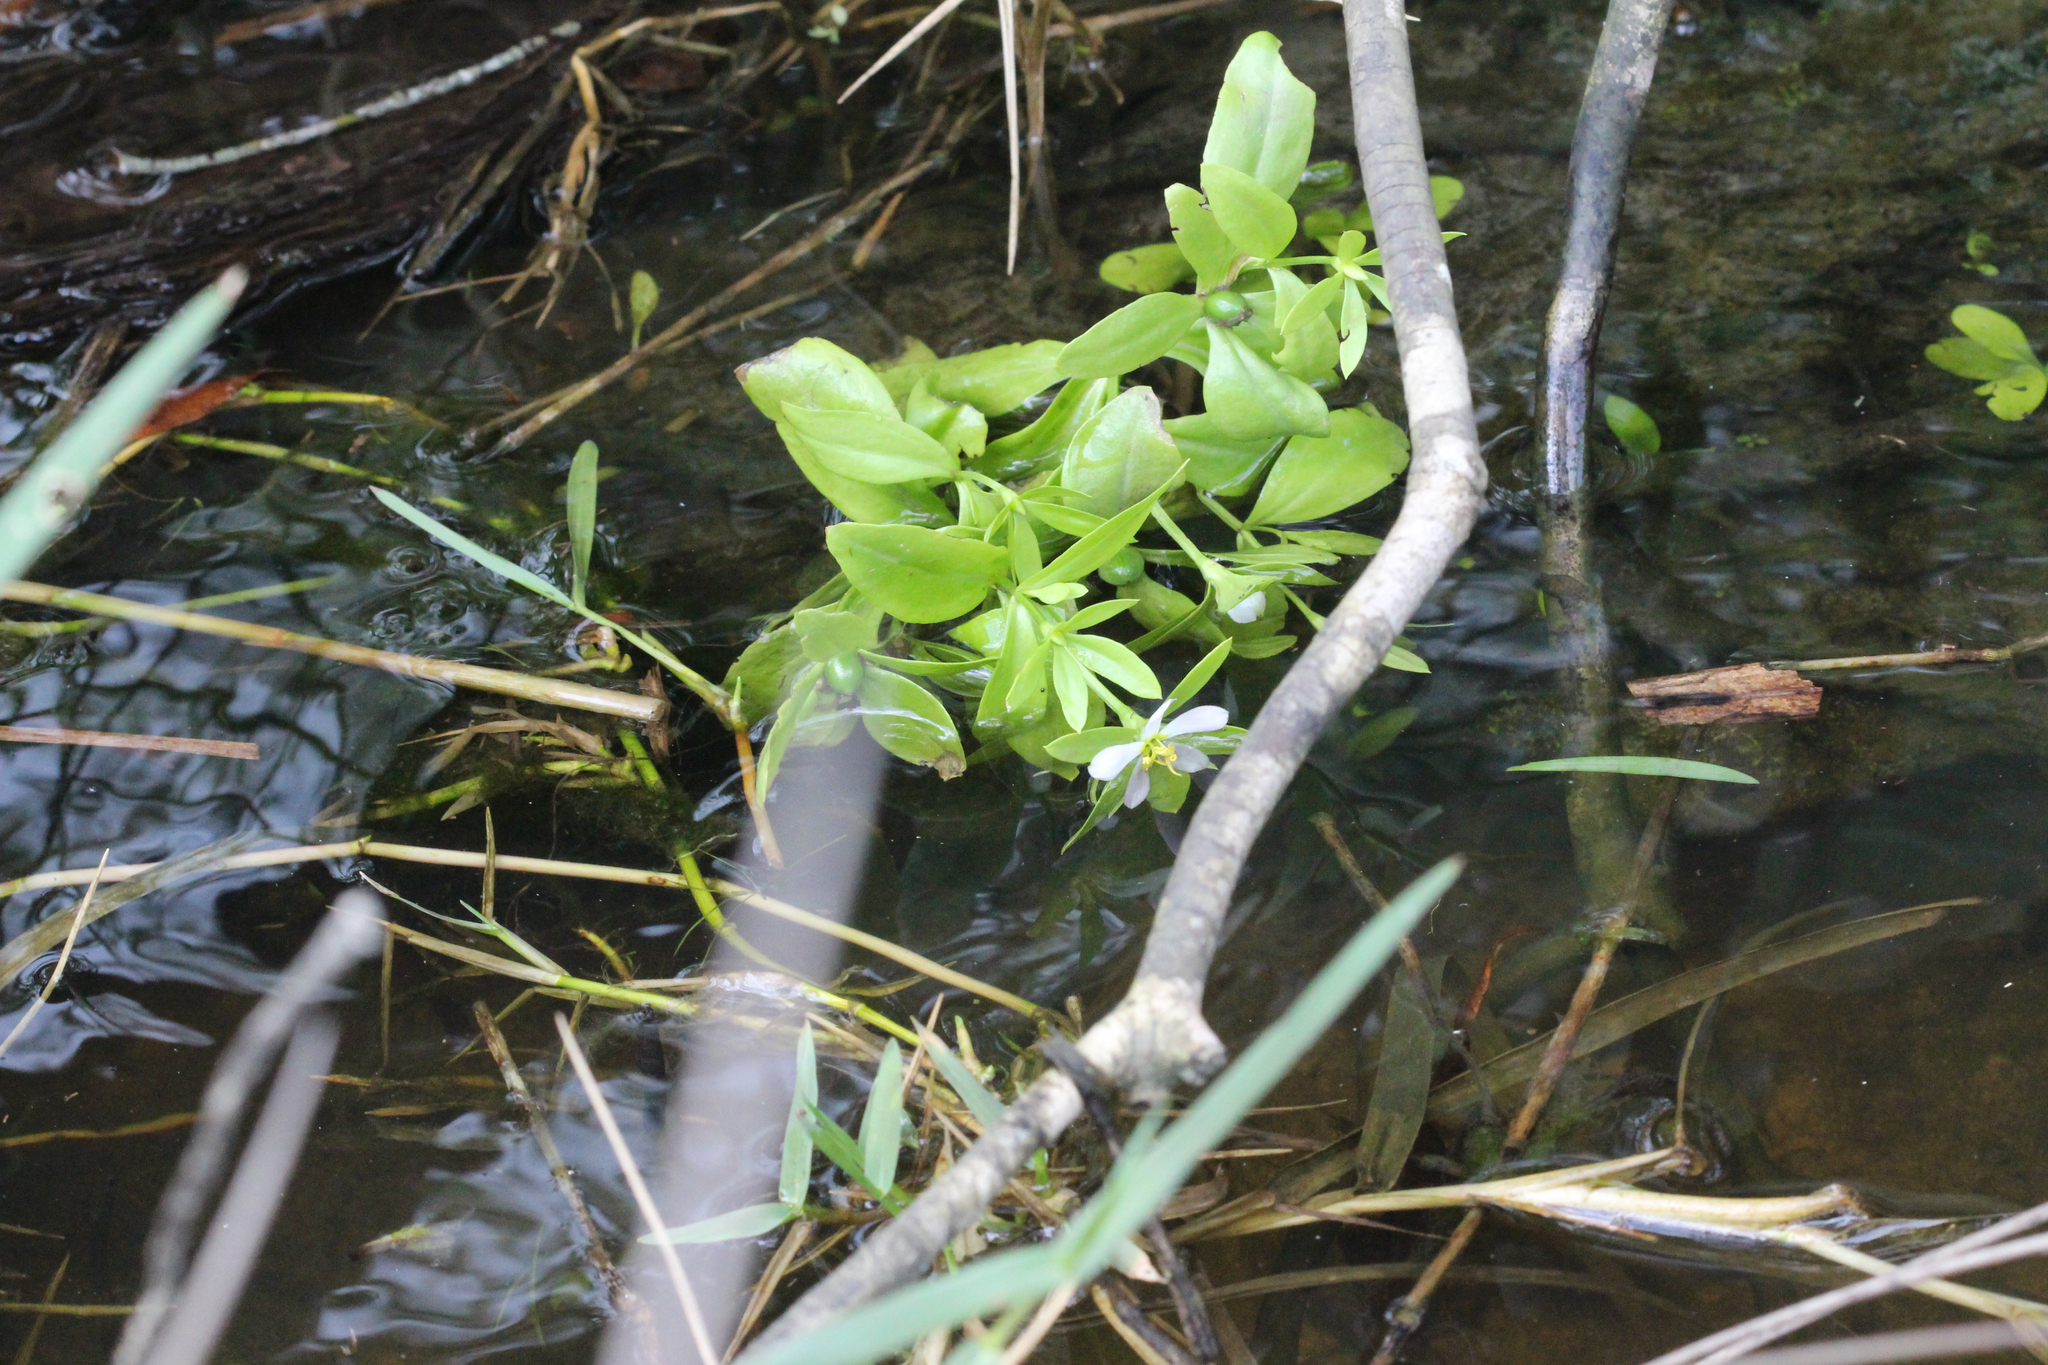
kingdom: Plantae
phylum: Tracheophyta
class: Magnoliopsida
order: Gentianales
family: Gentianaceae
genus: Sabatia
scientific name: Sabatia calycina
